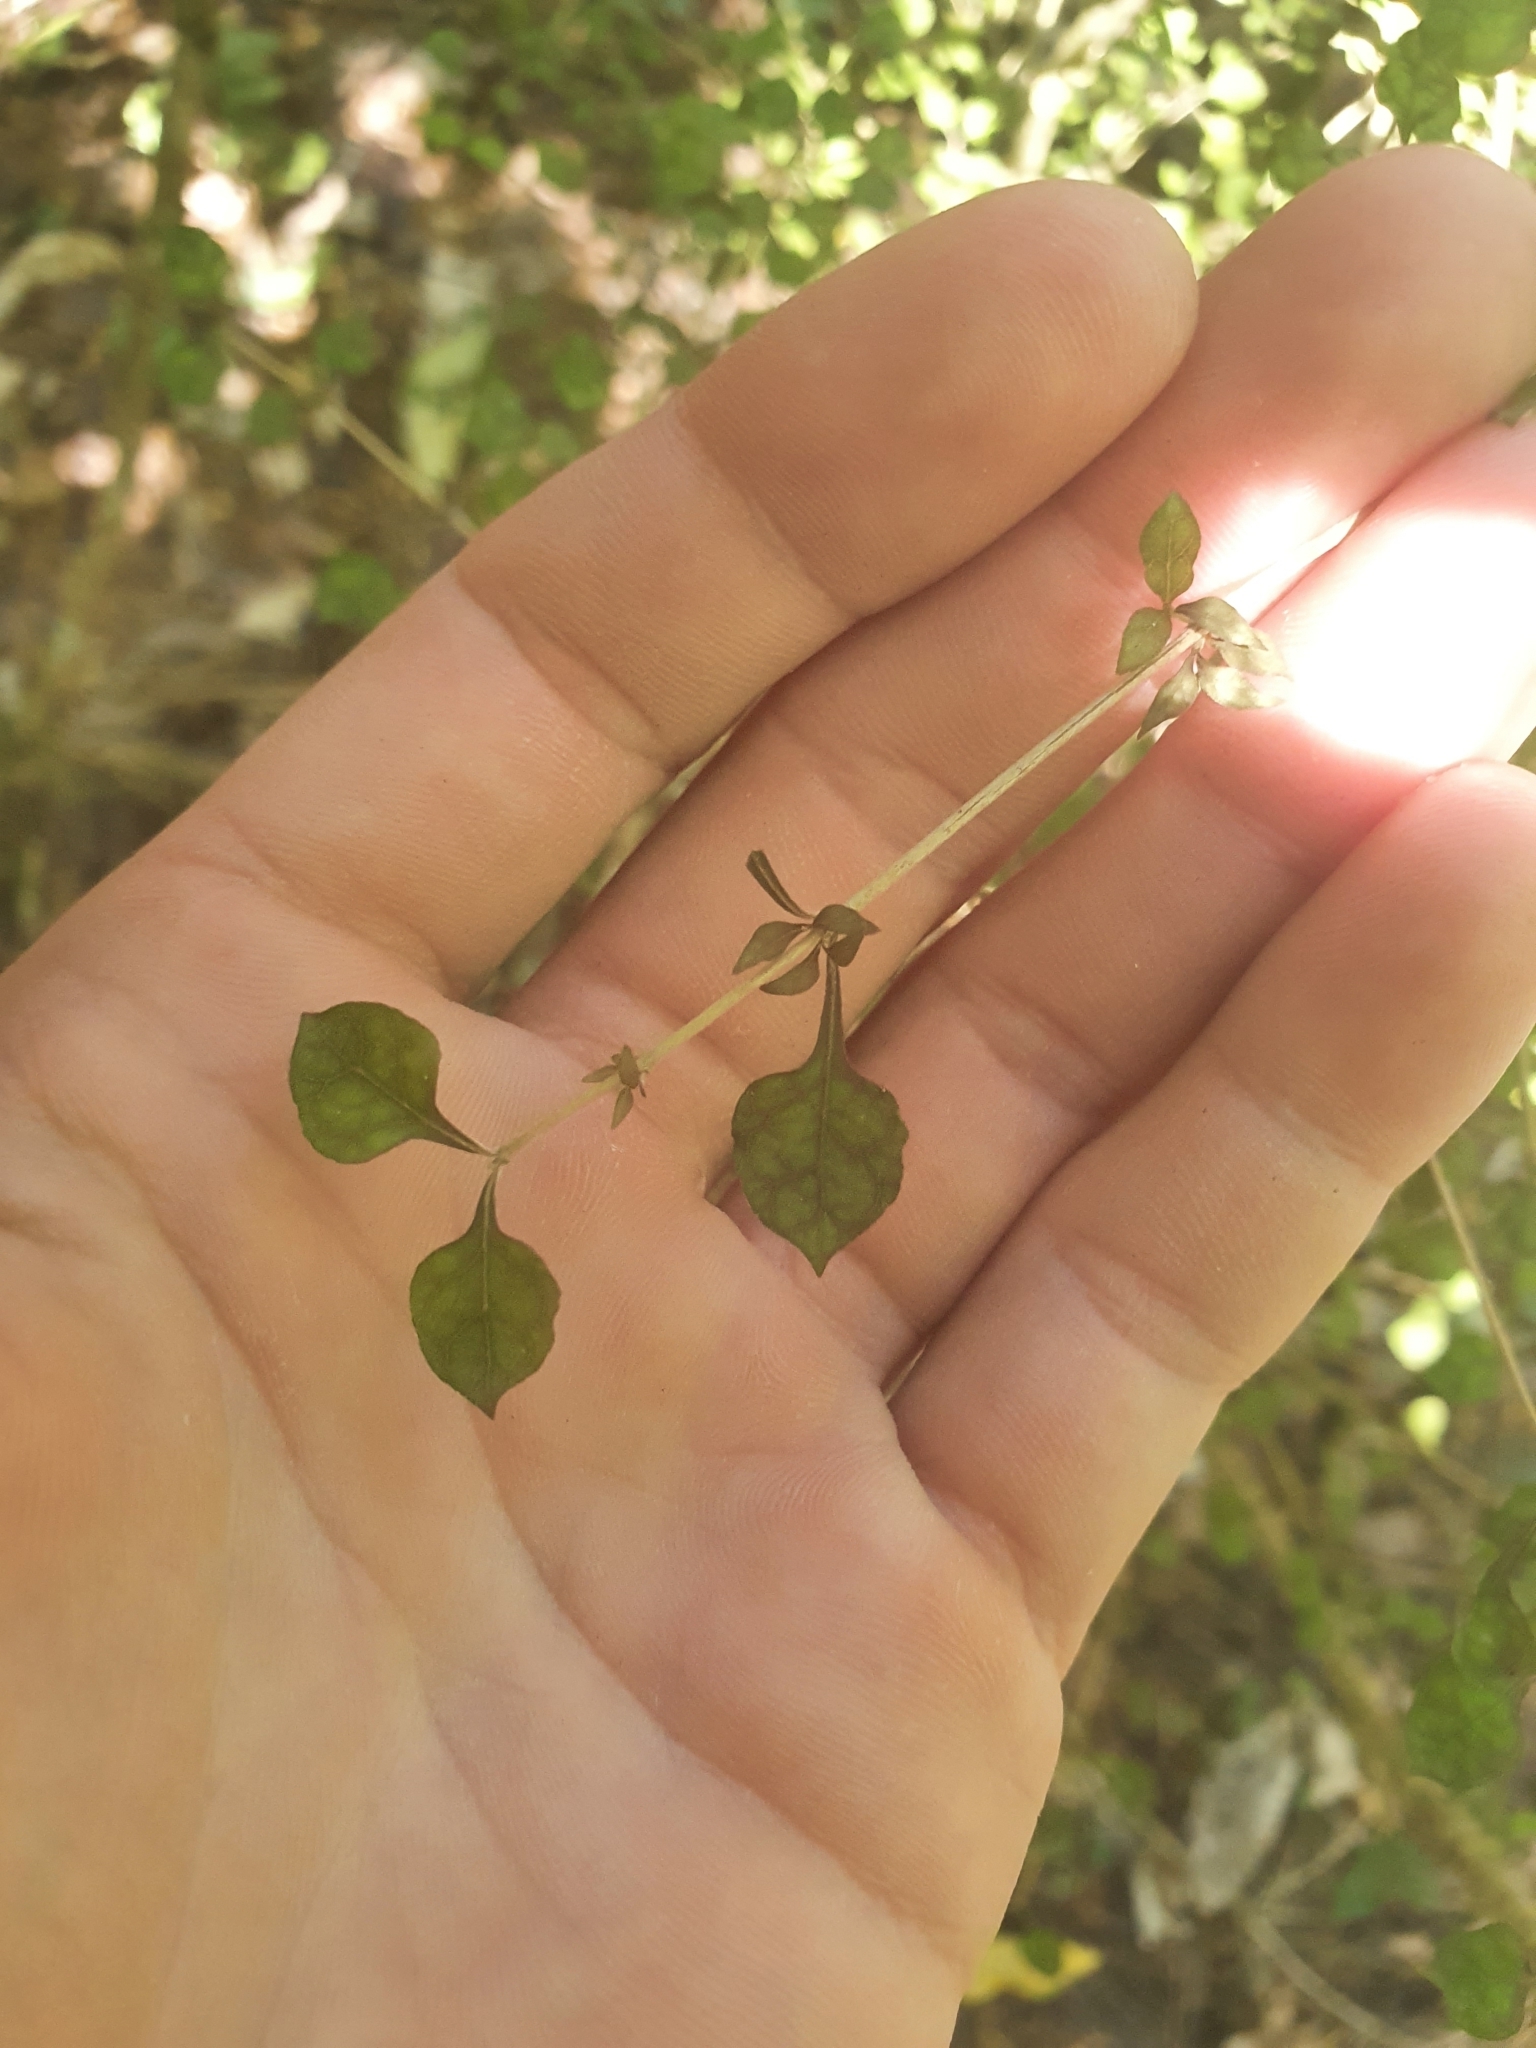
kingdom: Plantae
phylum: Tracheophyta
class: Magnoliopsida
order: Gentianales
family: Rubiaceae
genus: Coprosma
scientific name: Coprosma areolata
